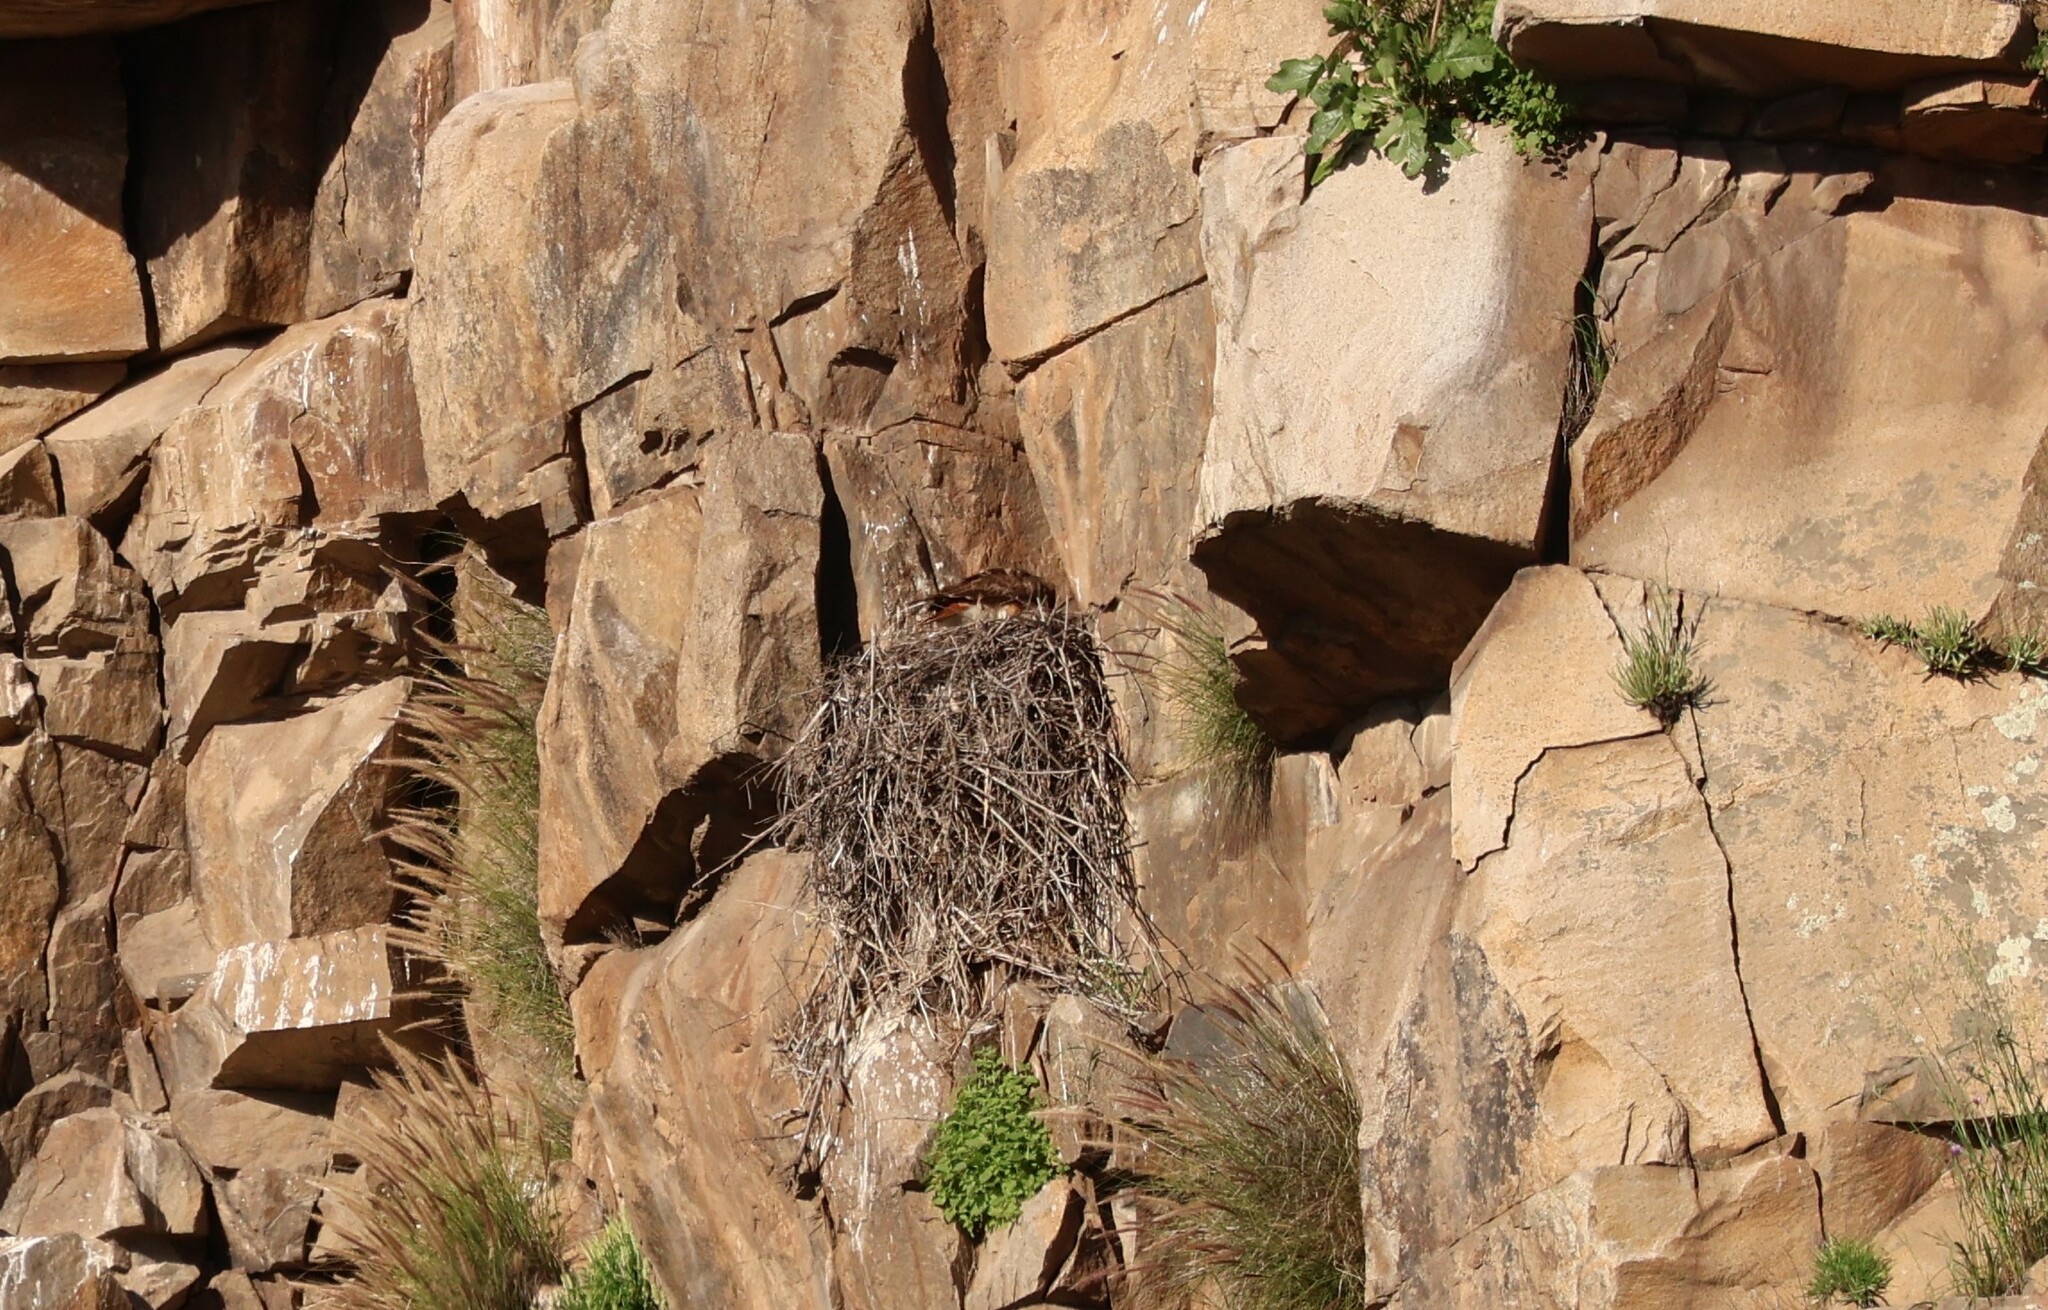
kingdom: Animalia
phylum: Chordata
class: Aves
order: Accipitriformes
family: Accipitridae
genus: Buteo
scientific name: Buteo jamaicensis
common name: Red-tailed hawk
